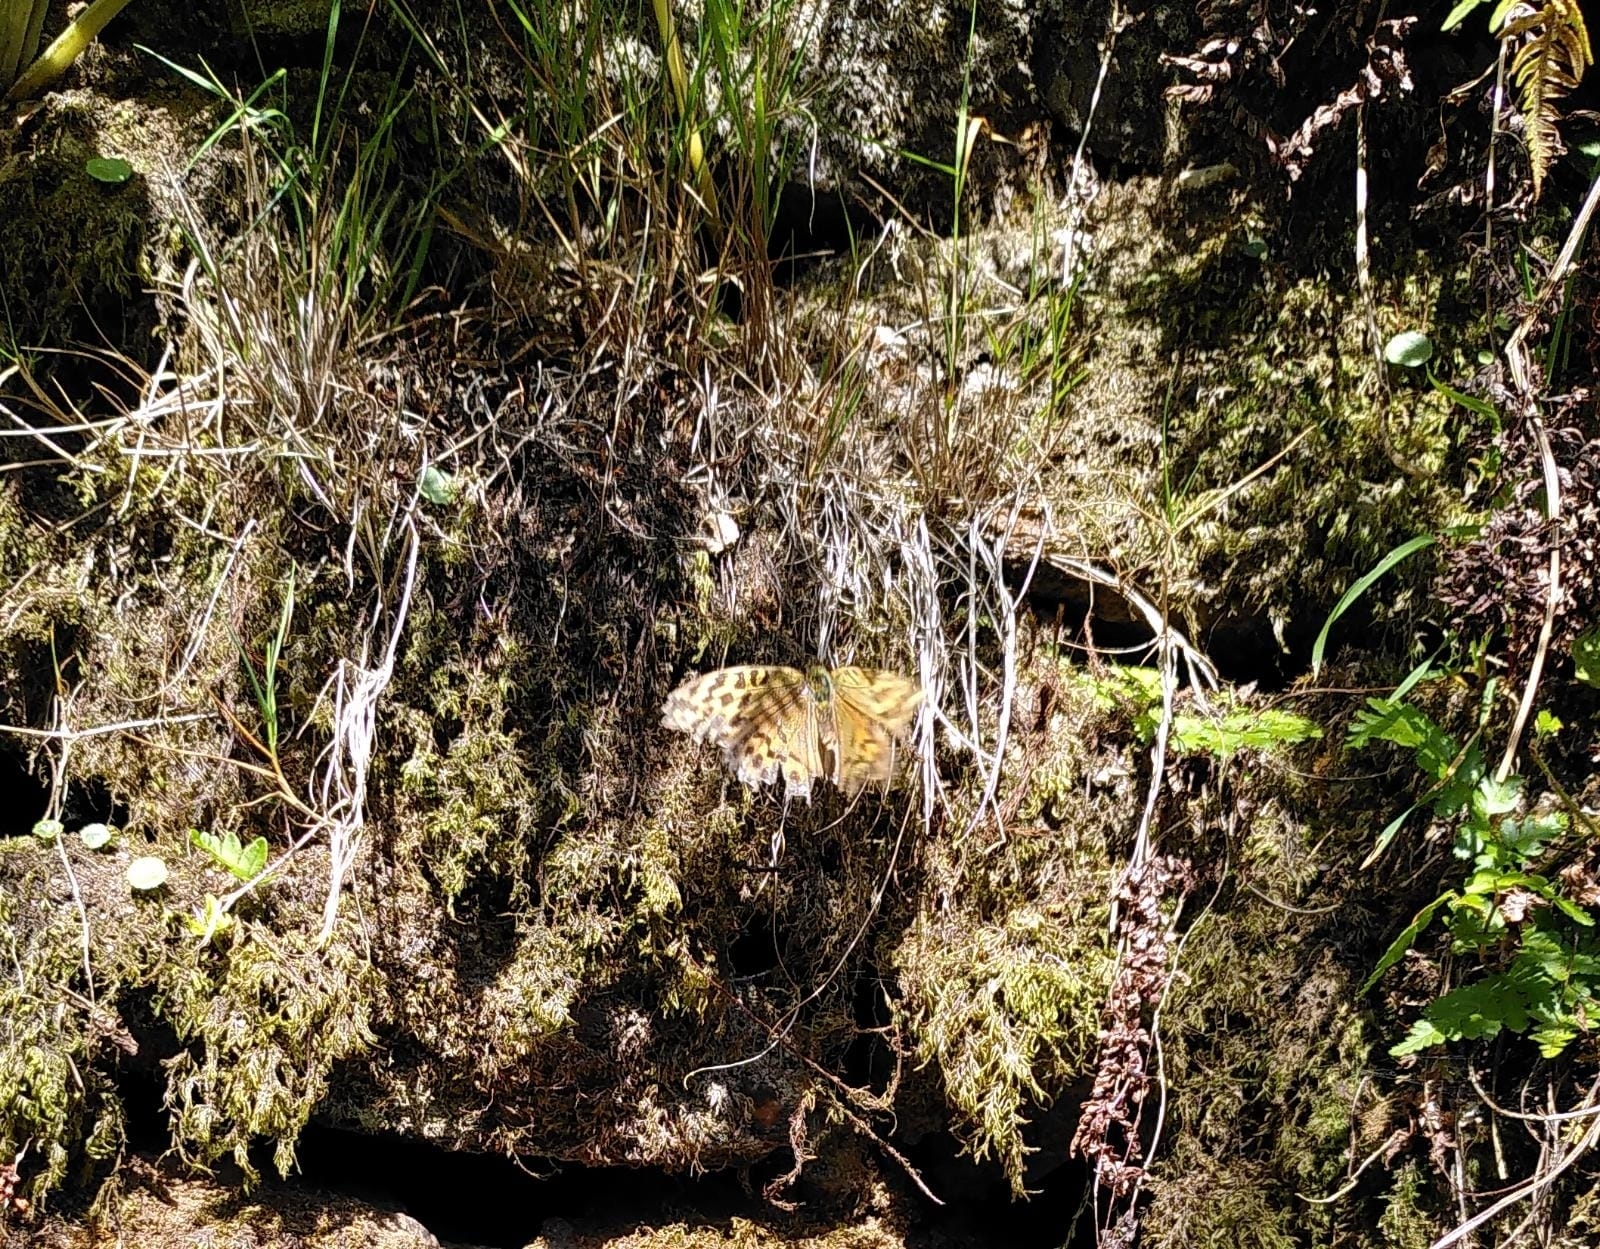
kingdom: Animalia
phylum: Arthropoda
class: Insecta
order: Lepidoptera
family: Nymphalidae
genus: Argynnis
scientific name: Argynnis paphia
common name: Silver-washed fritillary
